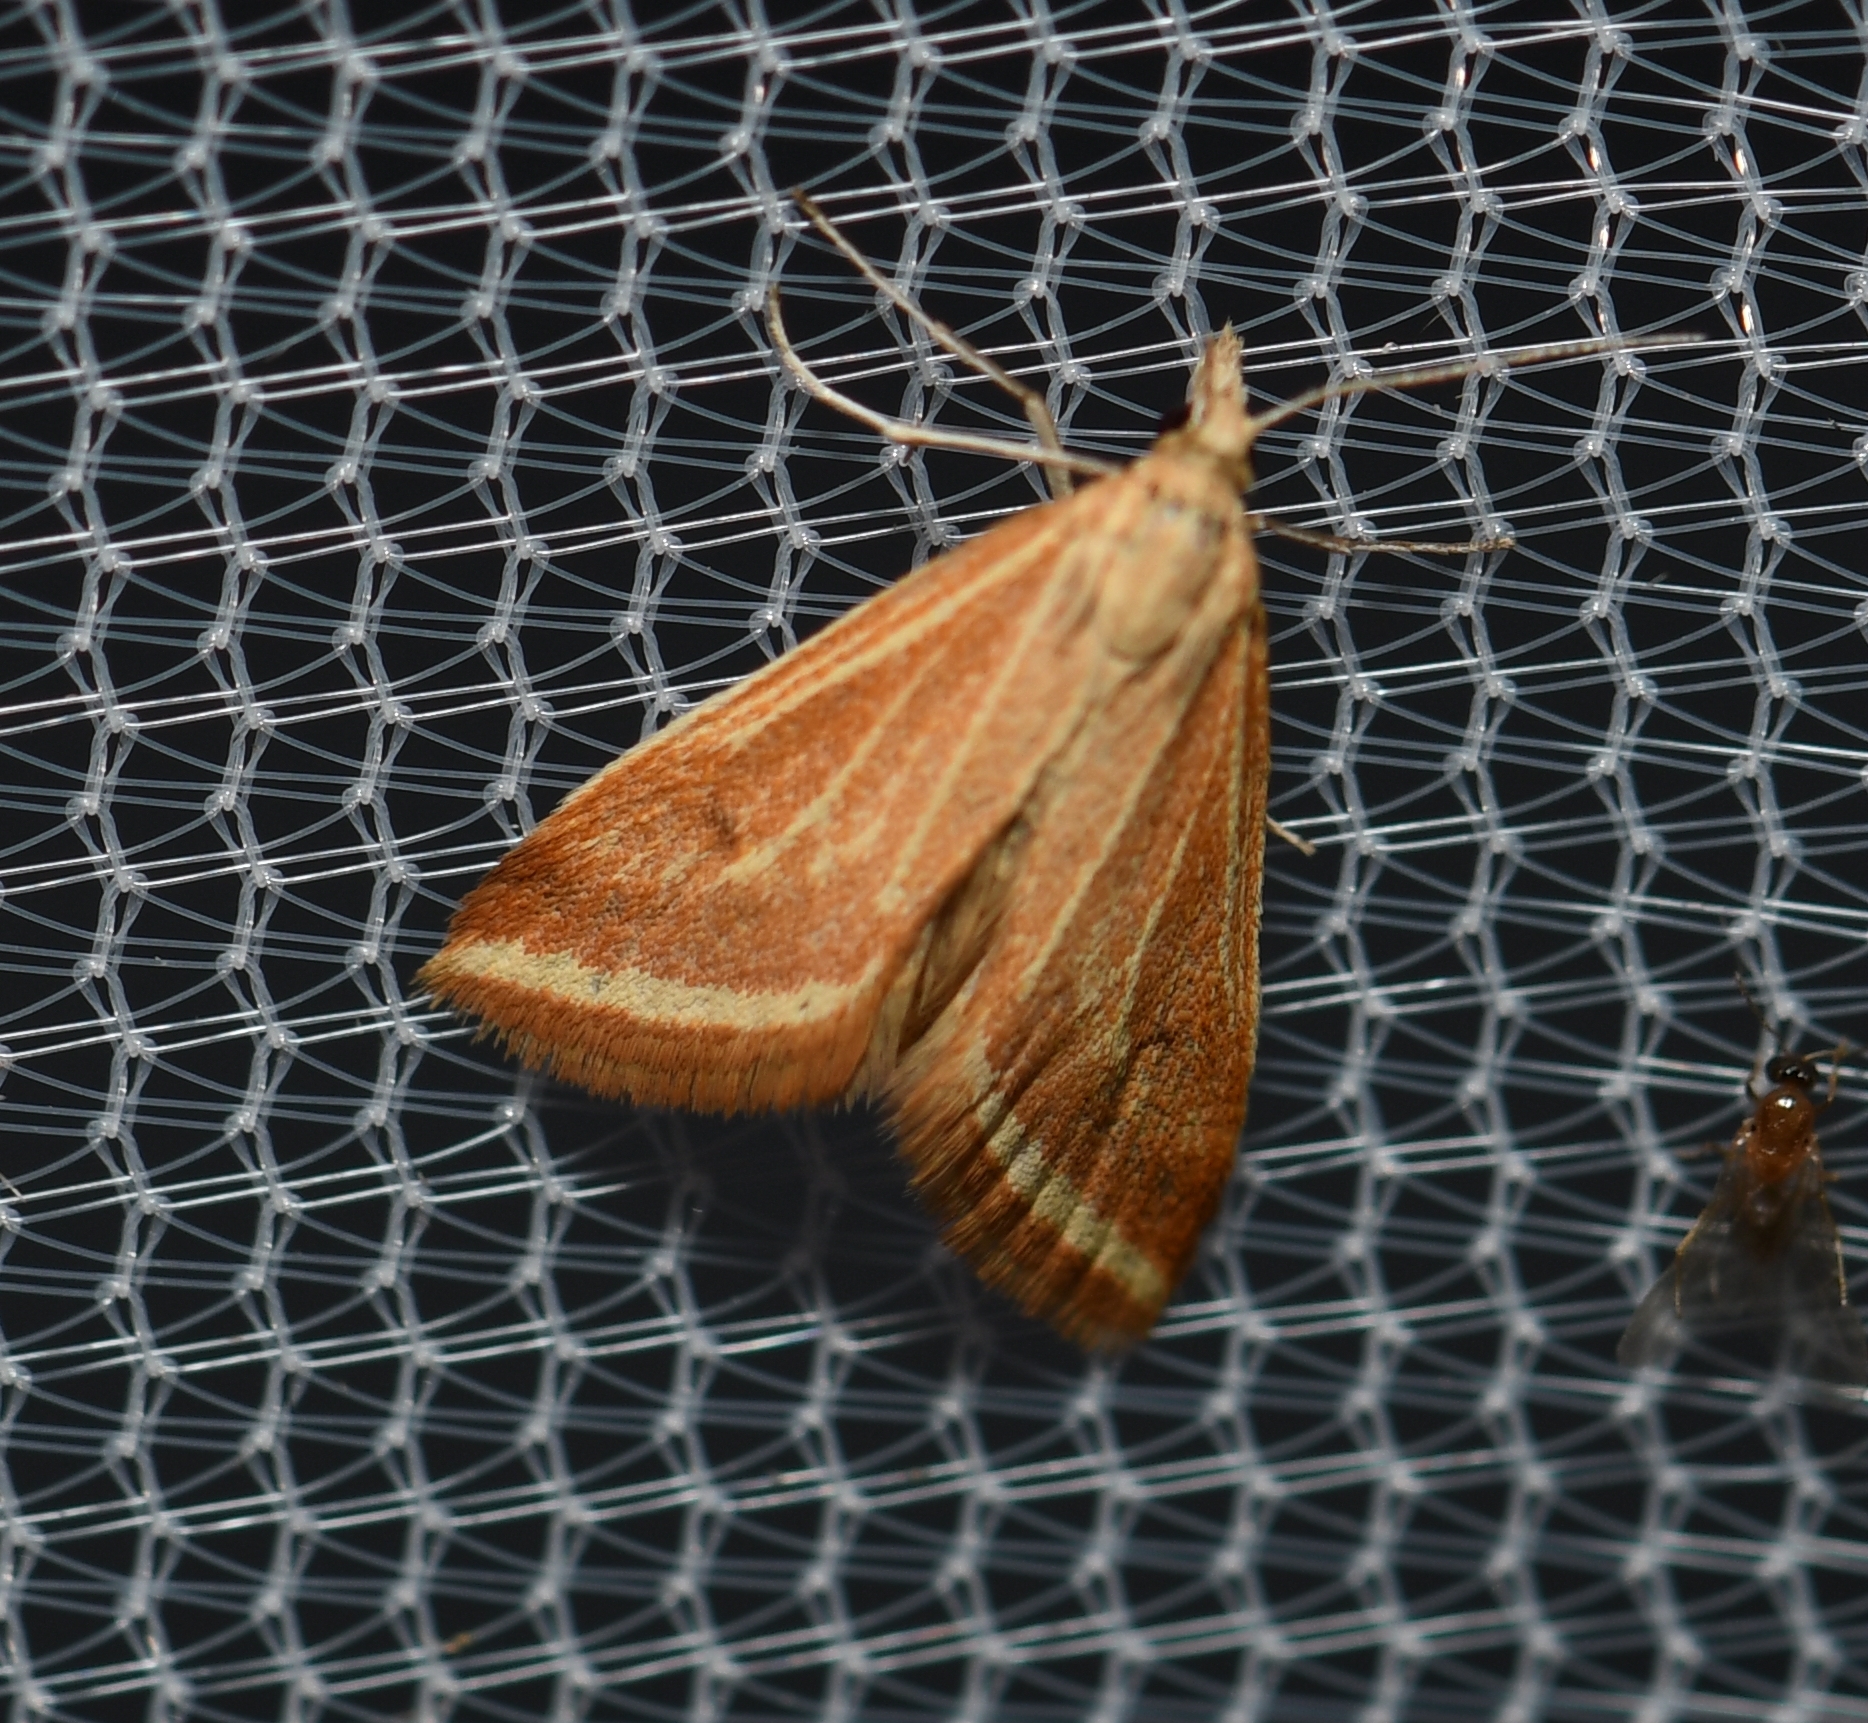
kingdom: Animalia
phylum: Arthropoda
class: Insecta
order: Lepidoptera
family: Crambidae
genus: Microtheoris
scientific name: Microtheoris ophionalis
